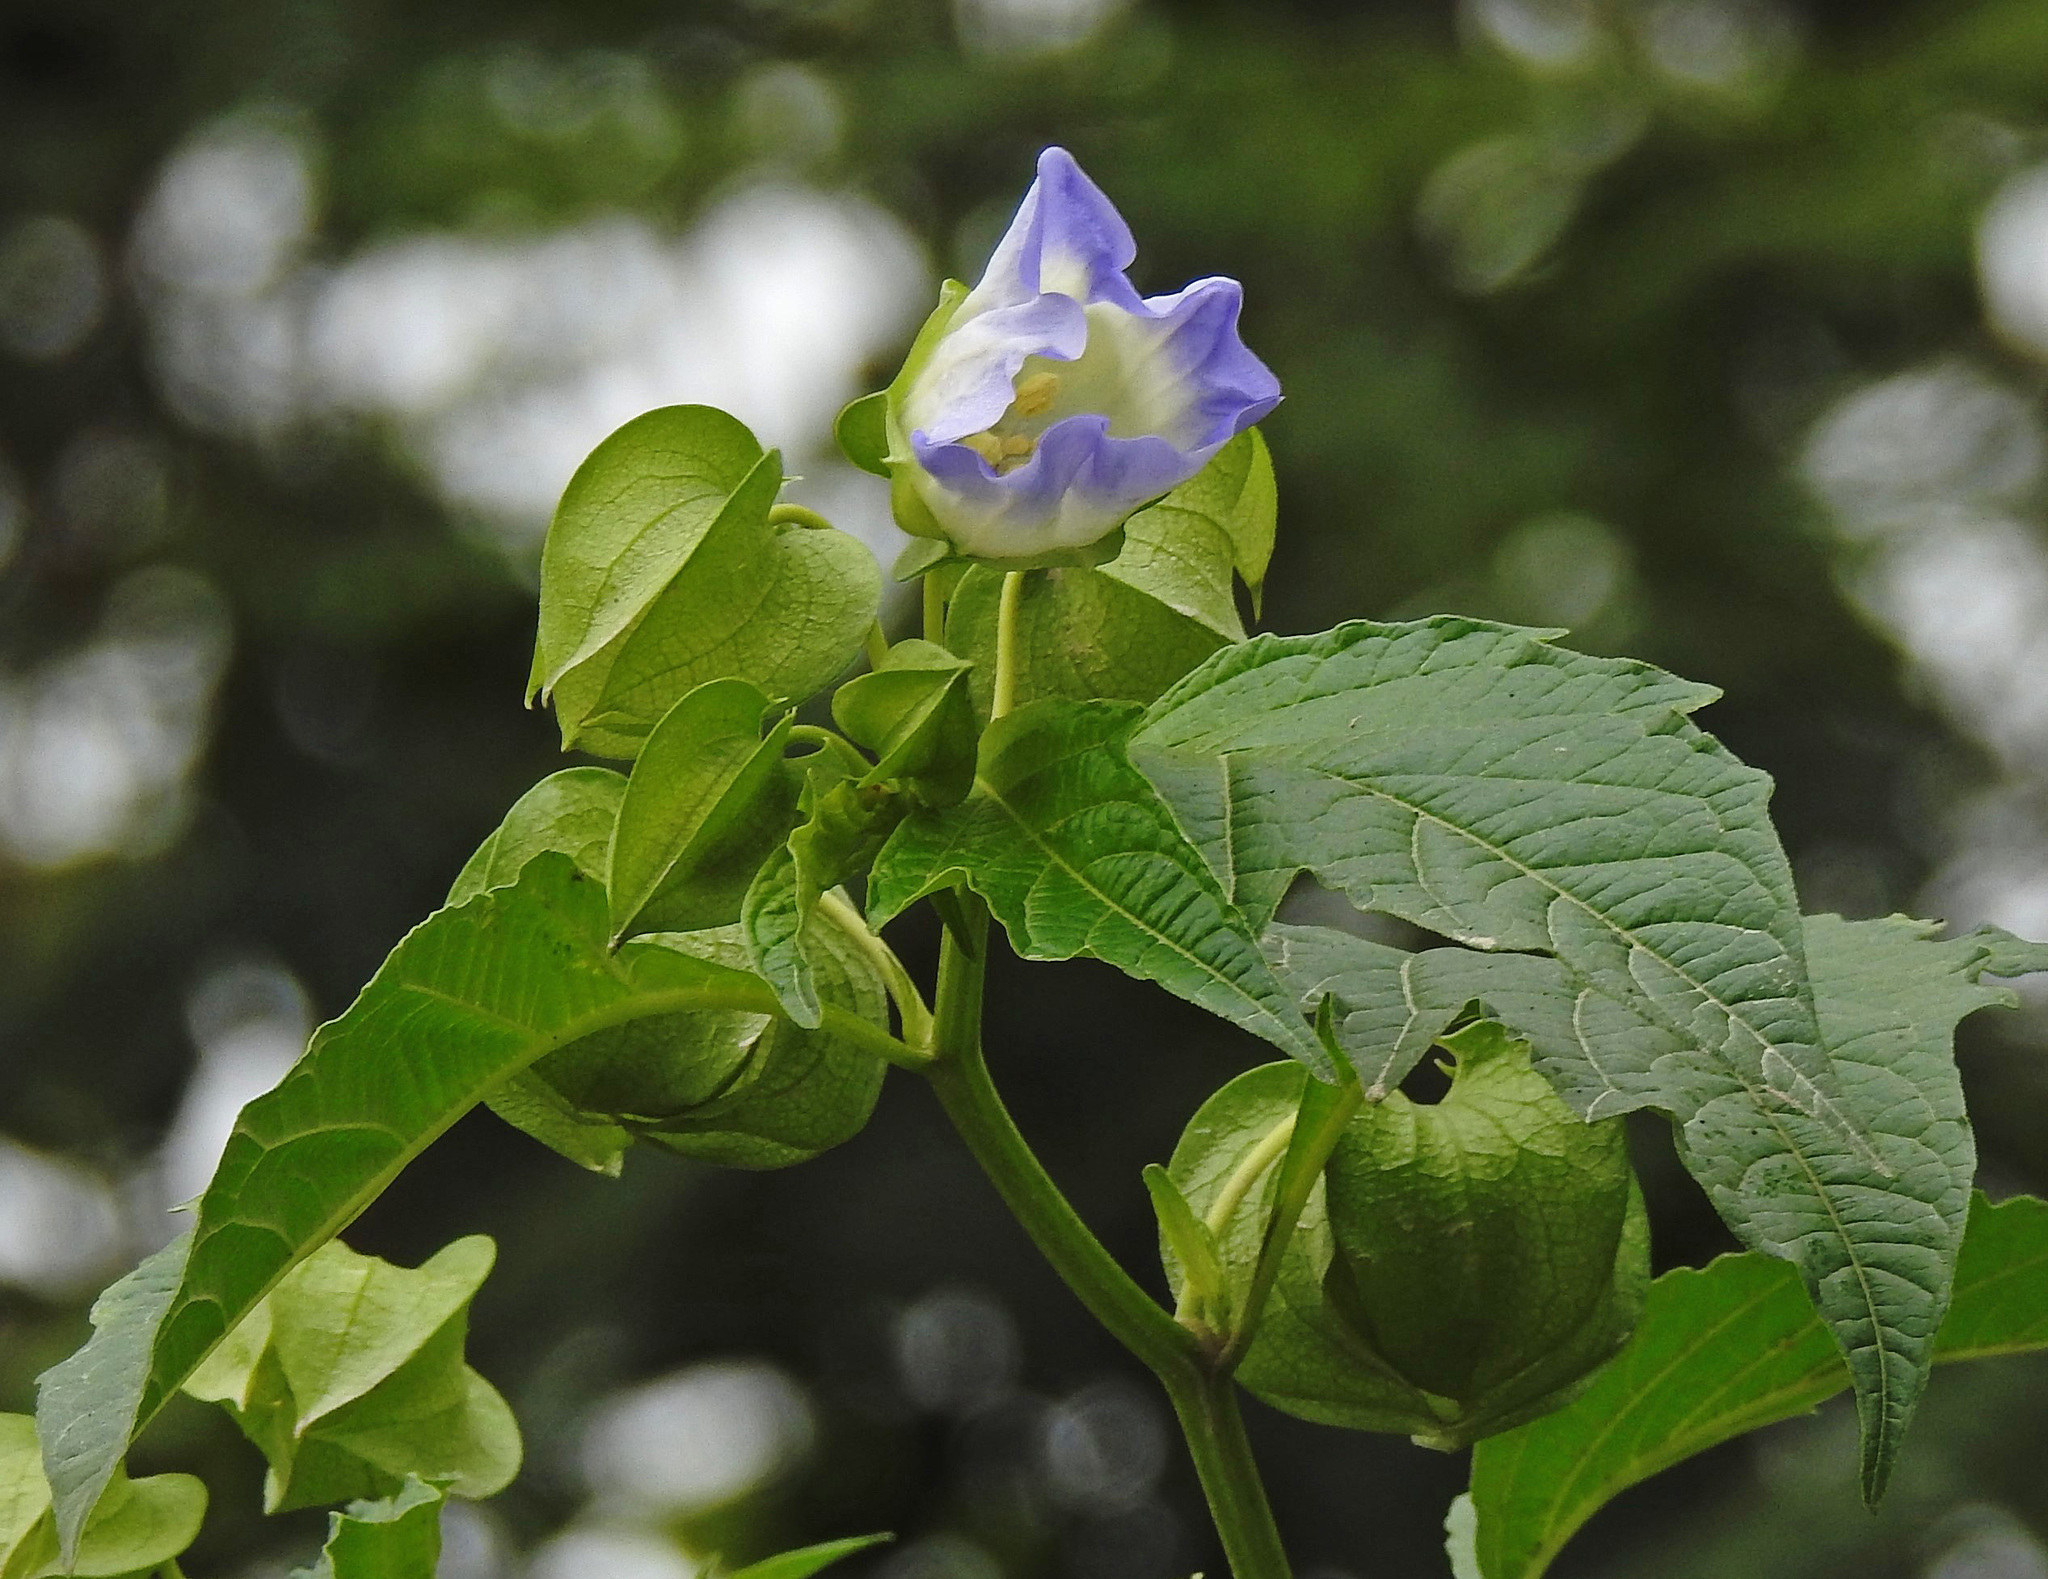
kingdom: Plantae
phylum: Tracheophyta
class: Magnoliopsida
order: Solanales
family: Solanaceae
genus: Nicandra
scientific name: Nicandra physalodes
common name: Apple-of-peru
